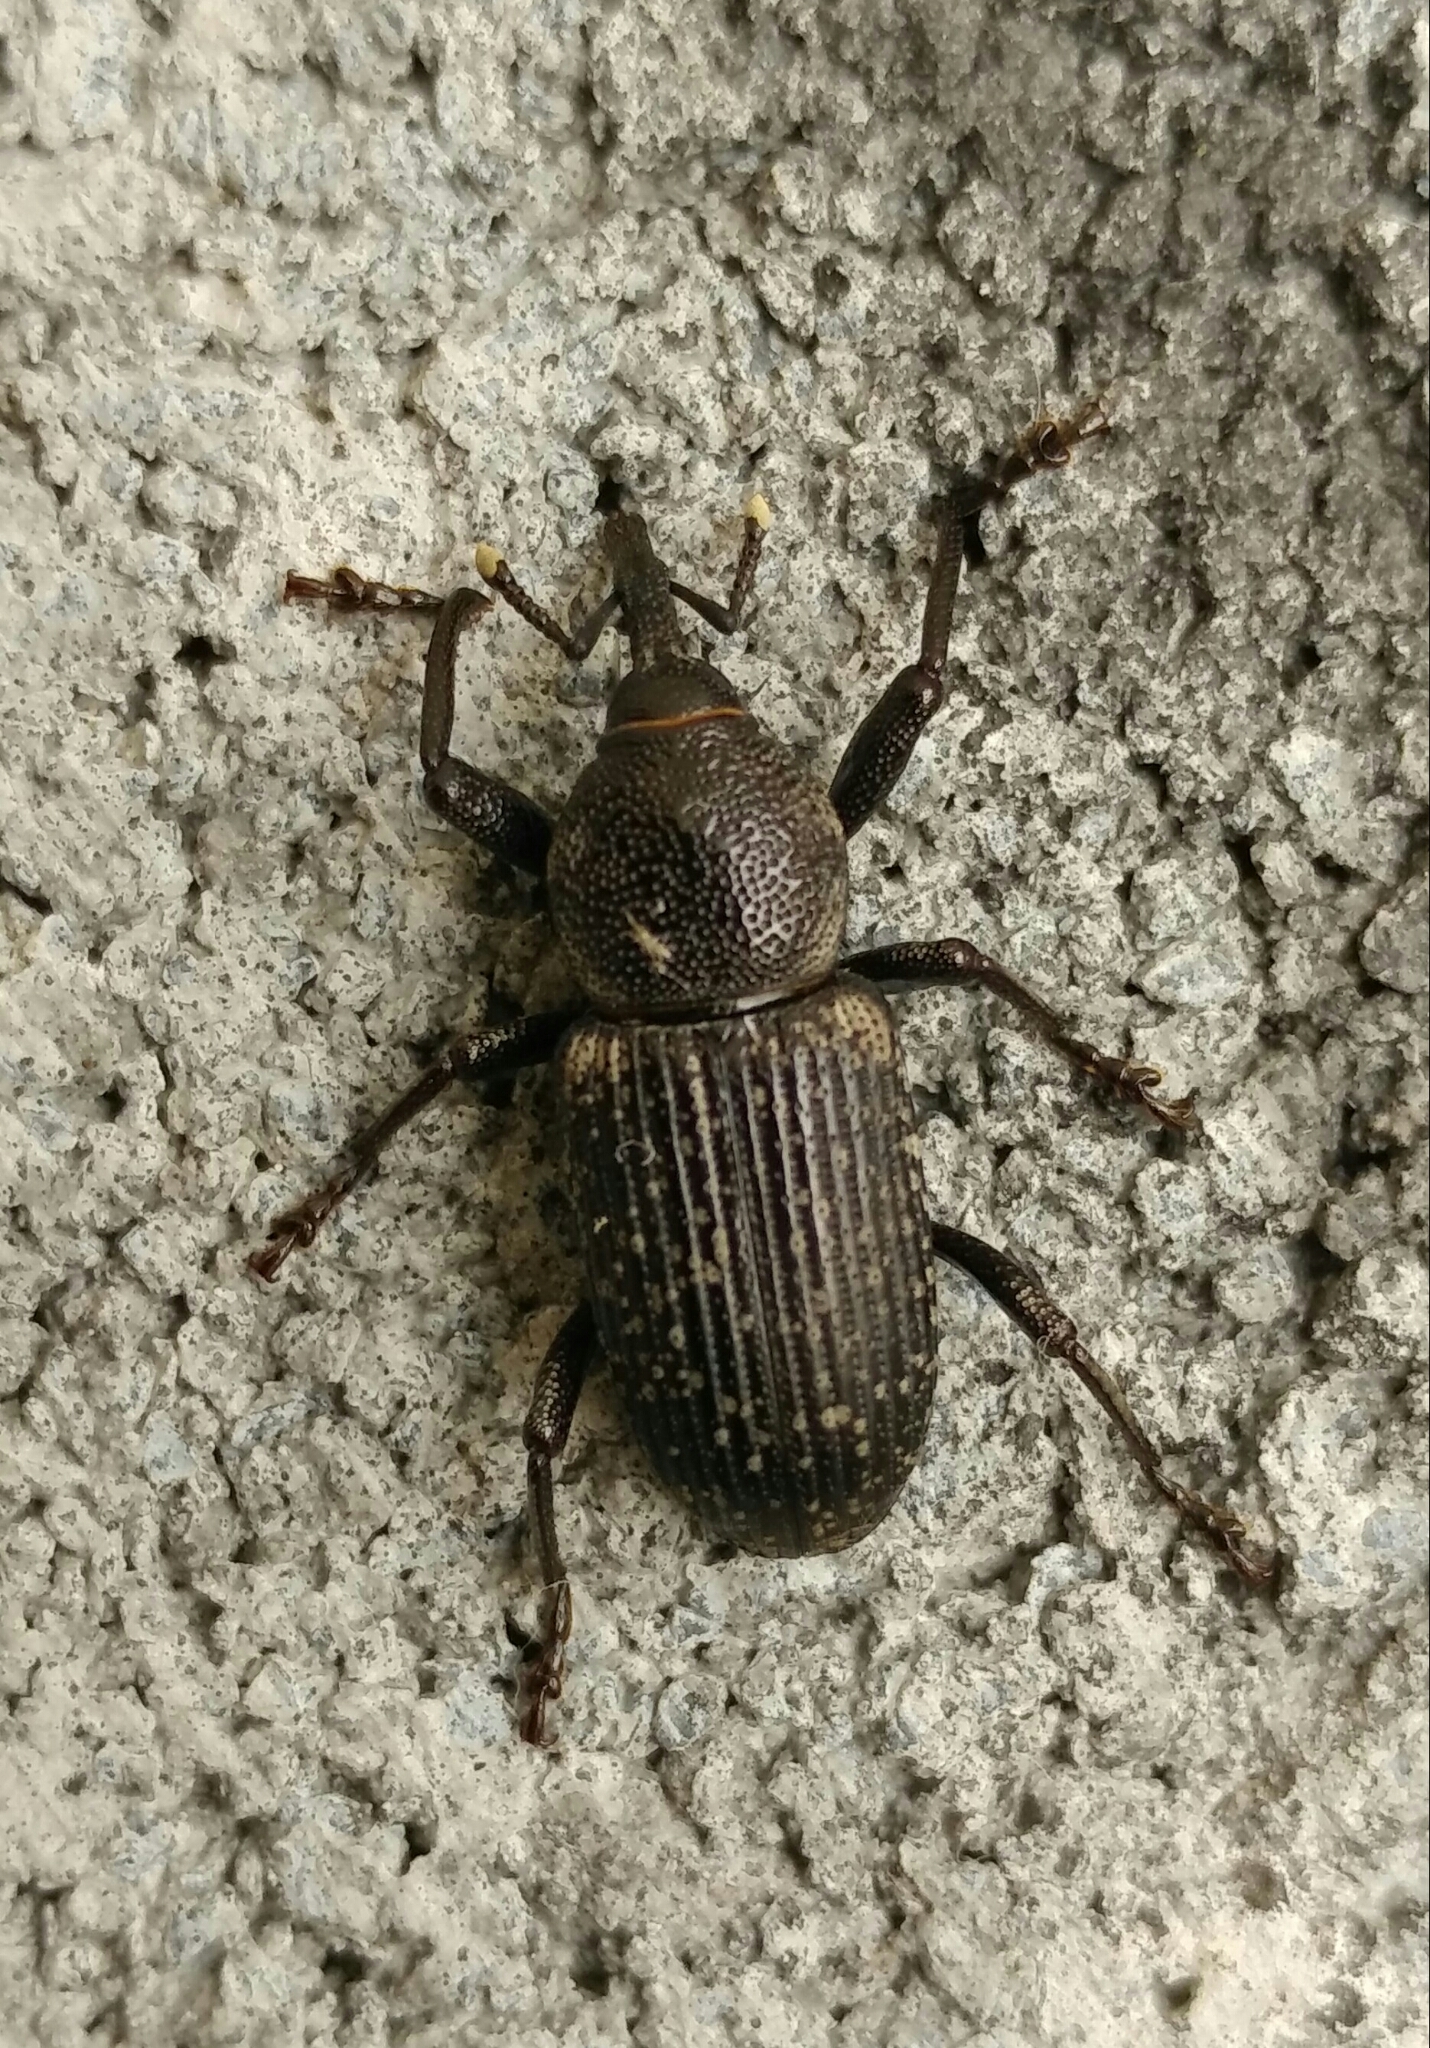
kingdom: Animalia
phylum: Arthropoda
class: Insecta
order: Coleoptera
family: Dryophthoridae
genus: Rhinostomus
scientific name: Rhinostomus
